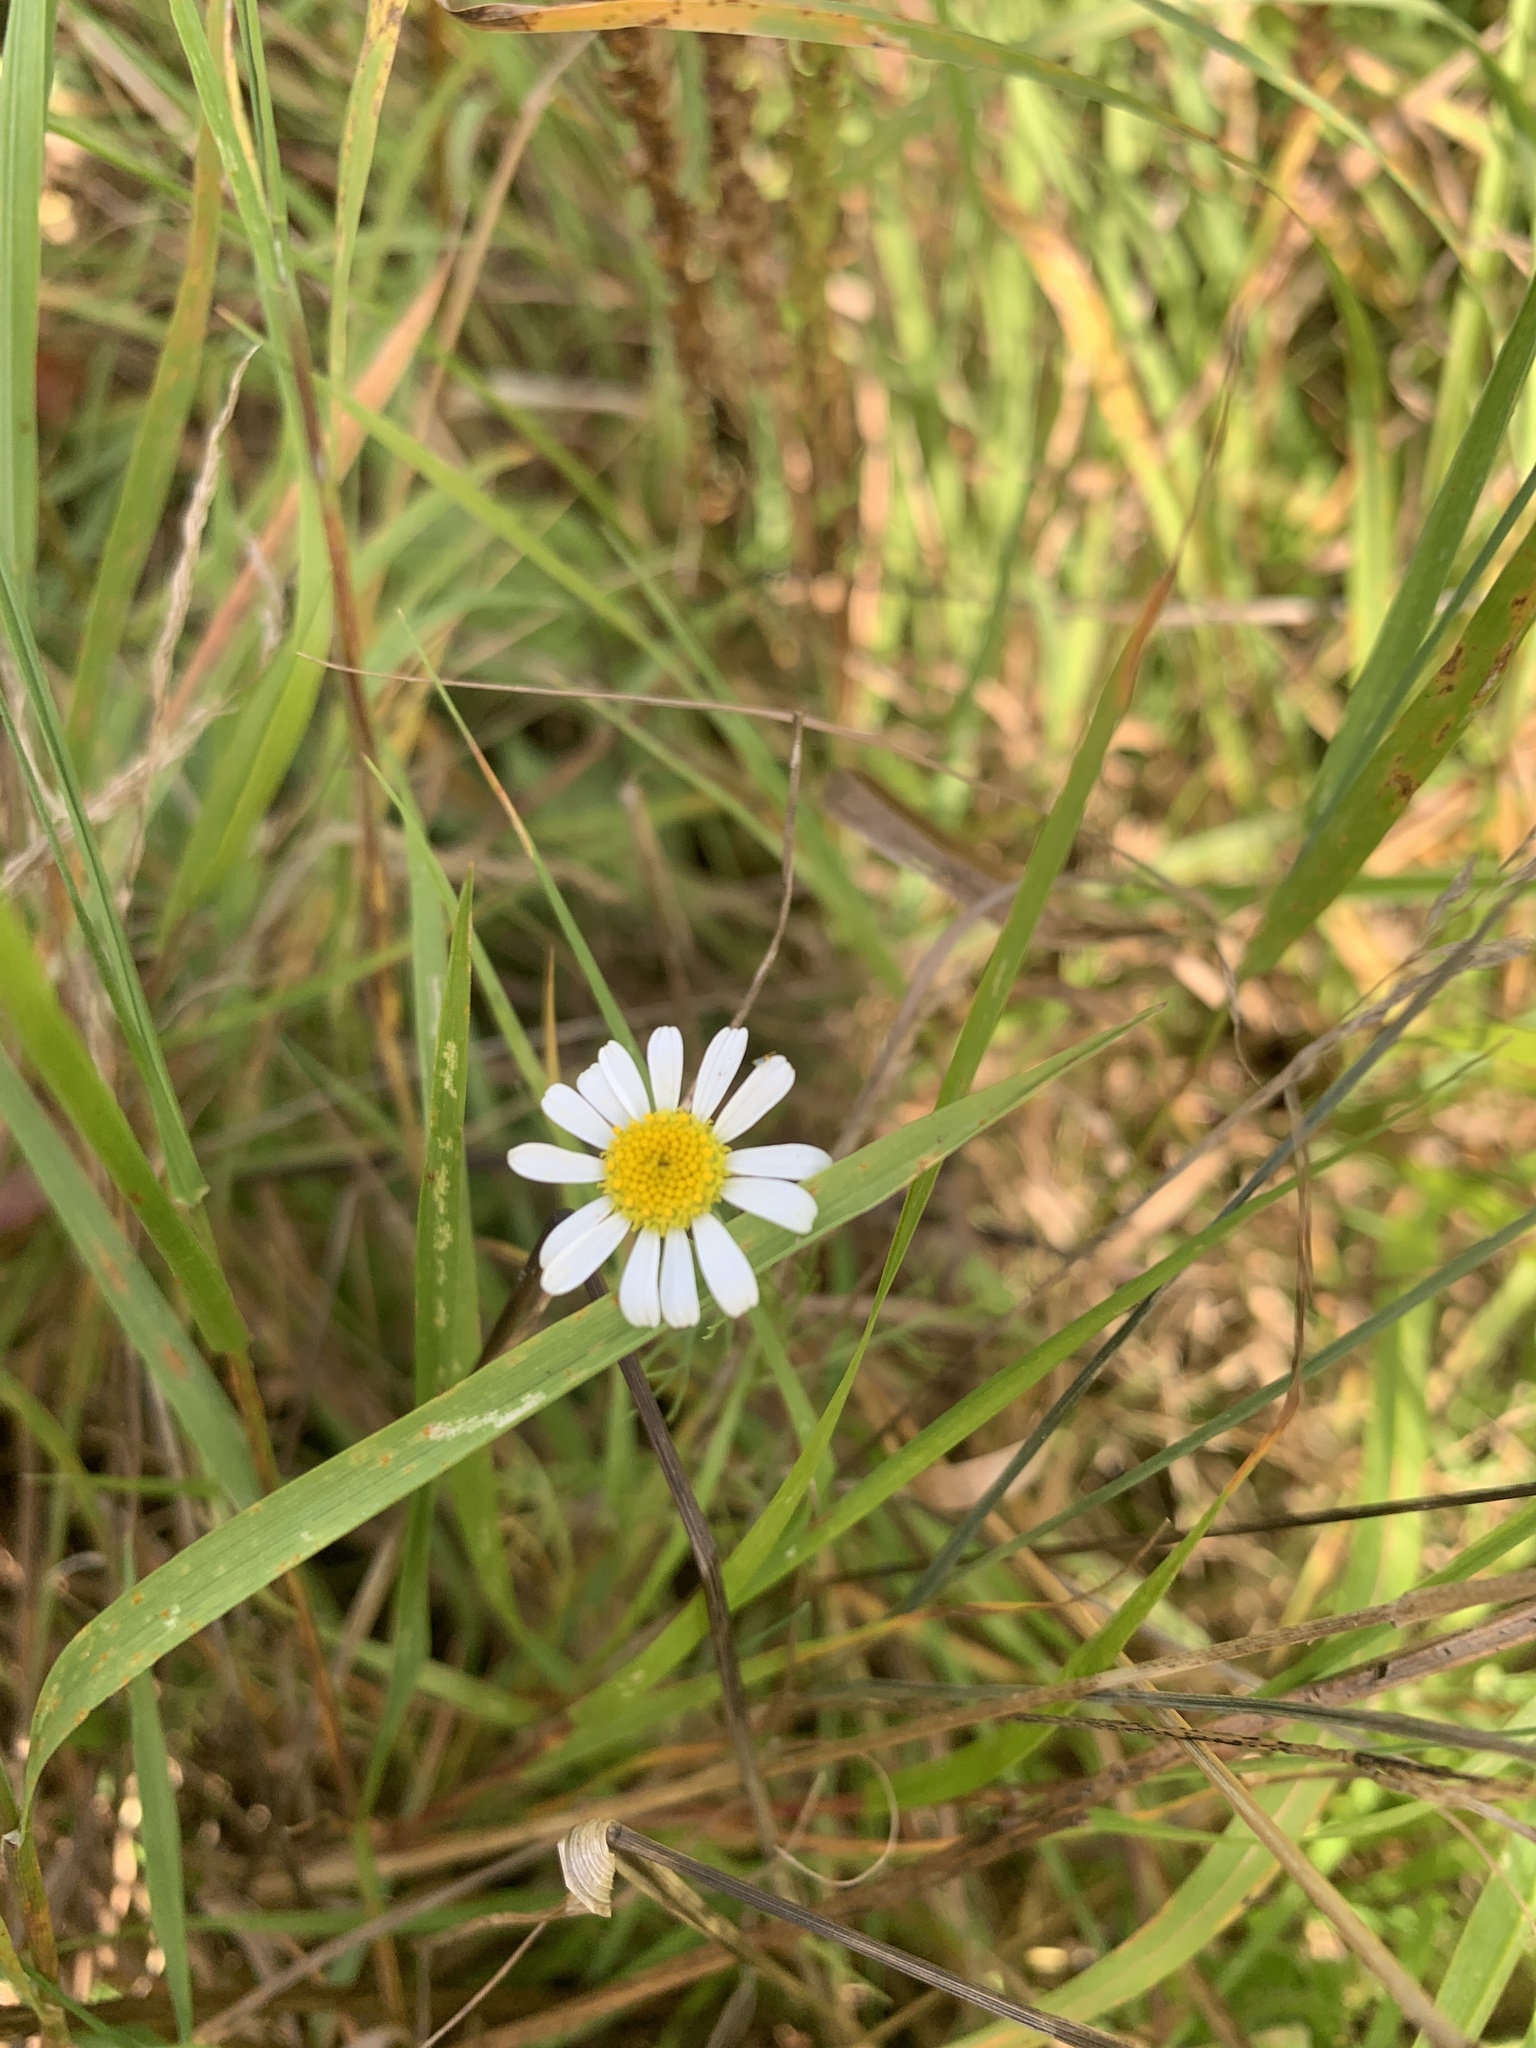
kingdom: Plantae
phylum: Tracheophyta
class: Magnoliopsida
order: Asterales
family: Asteraceae
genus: Tripleurospermum
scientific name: Tripleurospermum inodorum
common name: Scentless mayweed
